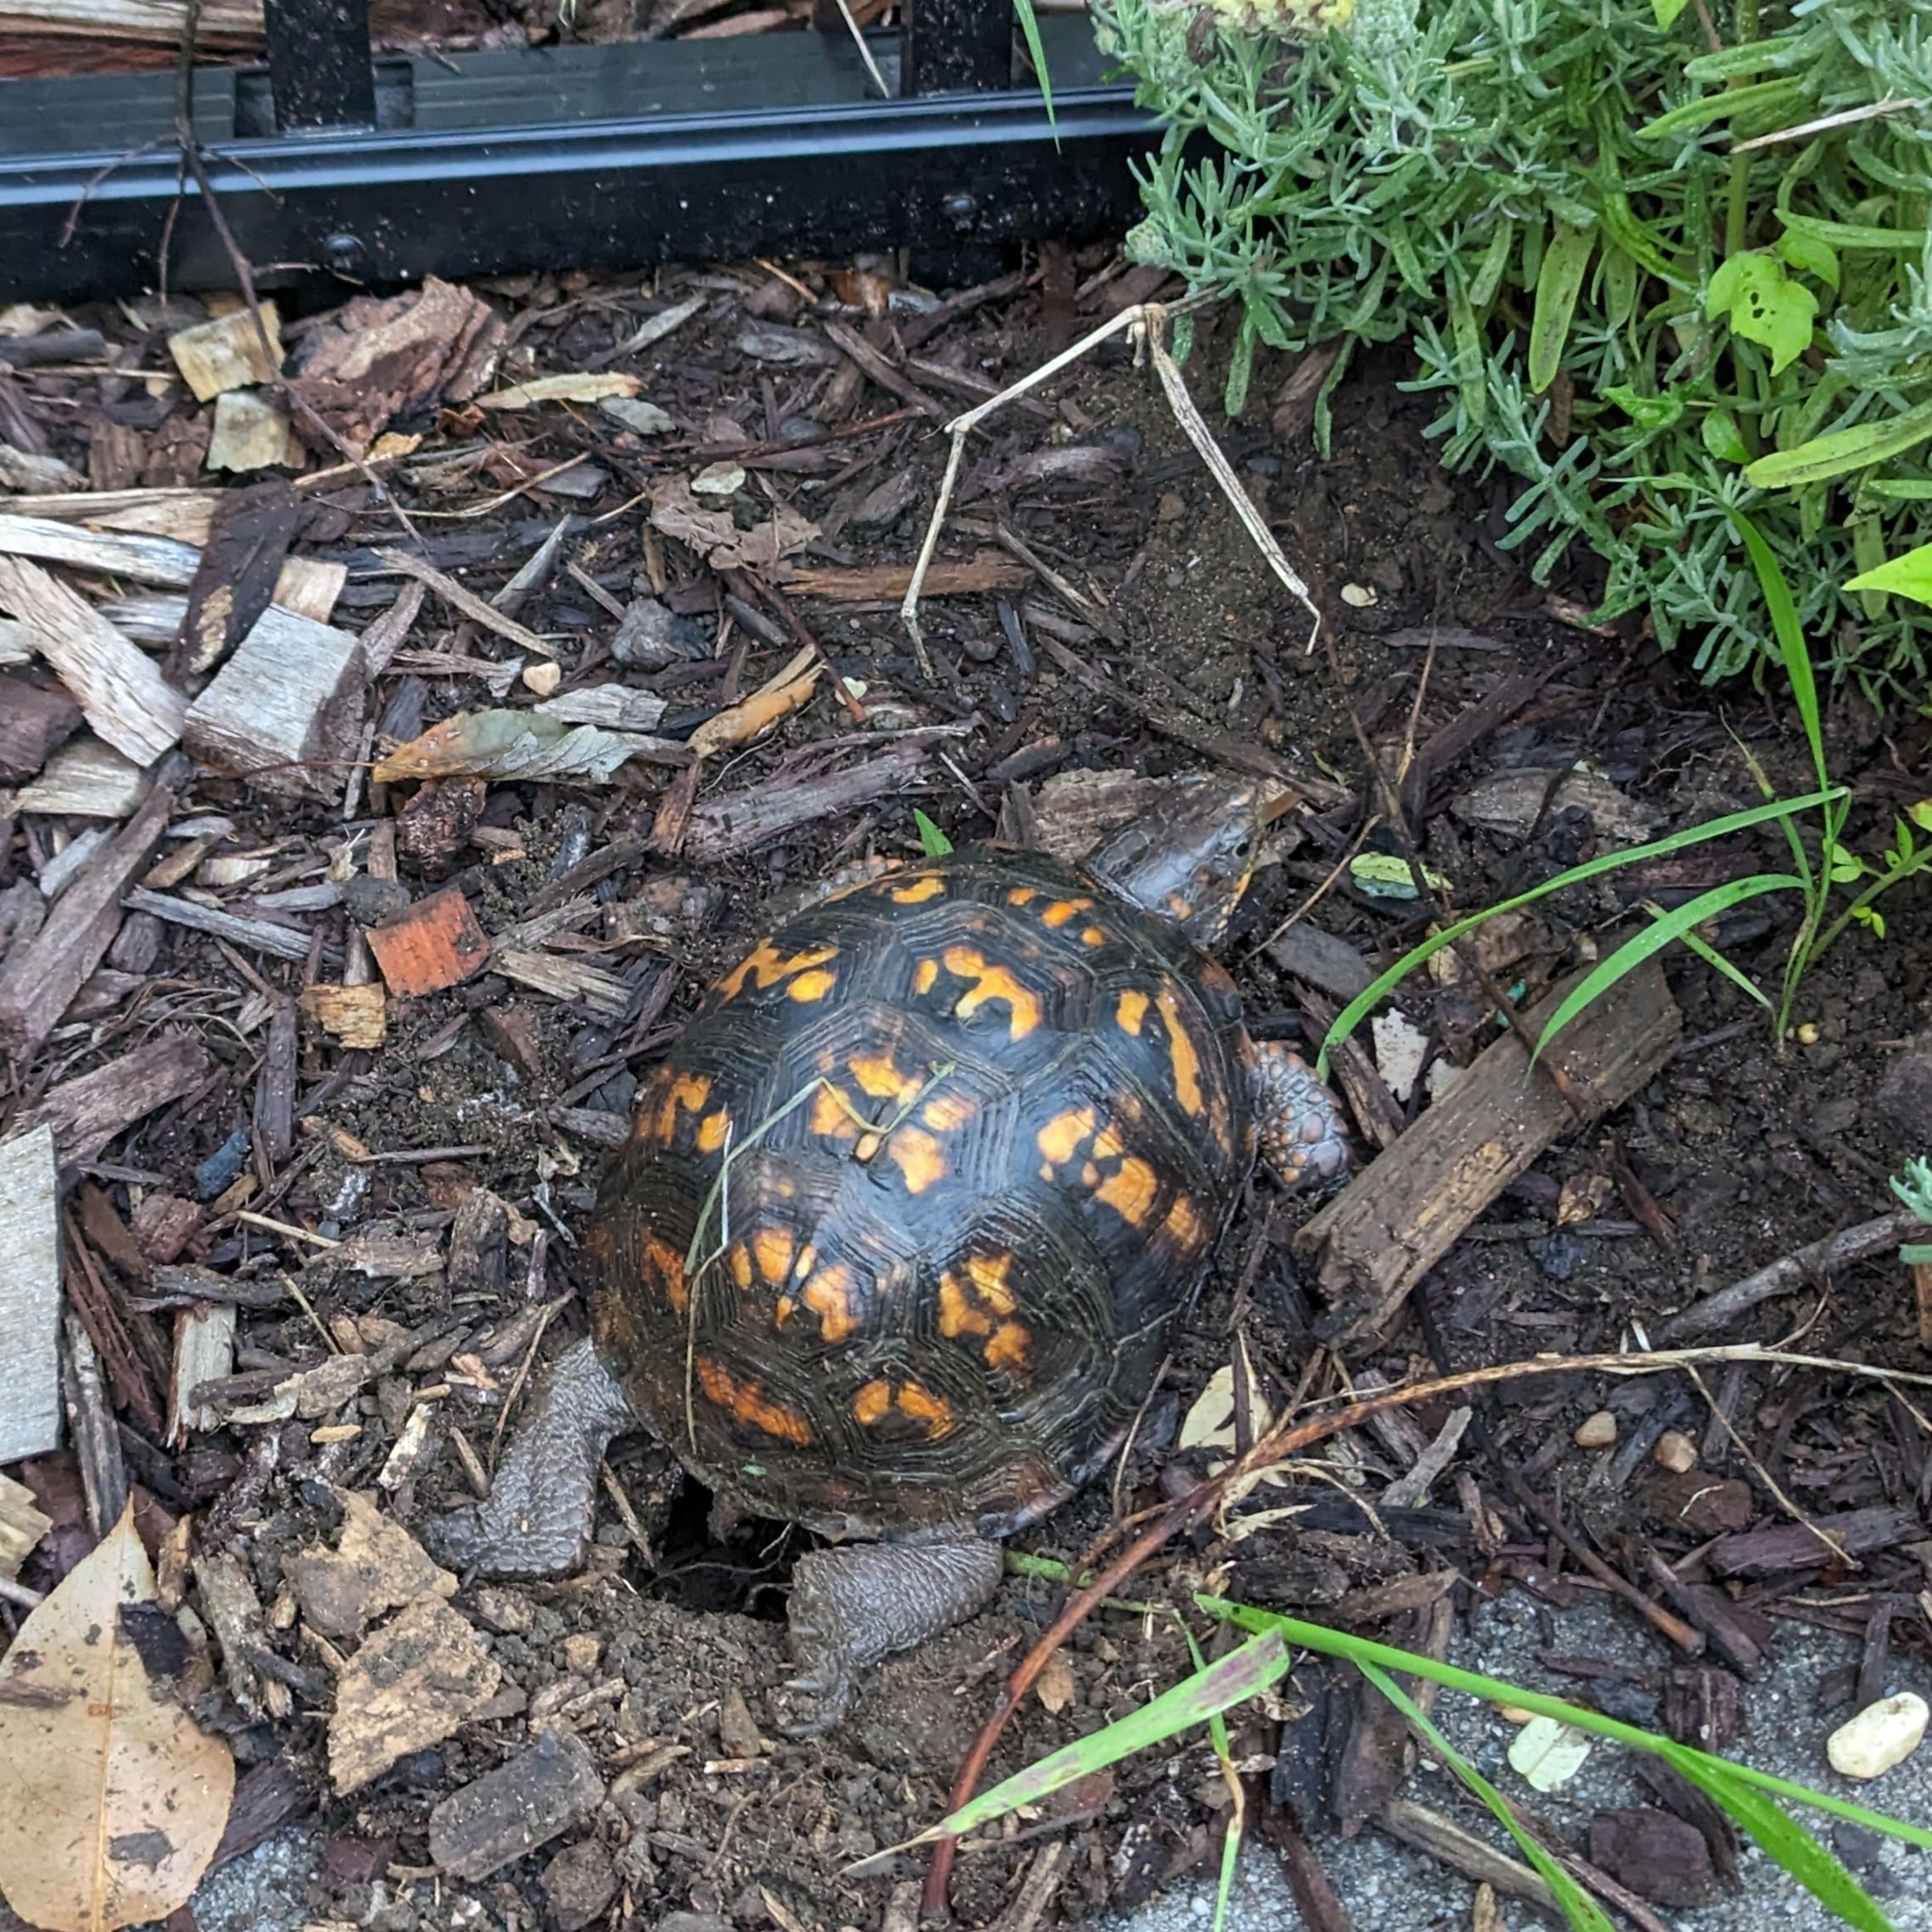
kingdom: Animalia
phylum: Chordata
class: Testudines
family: Emydidae
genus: Terrapene
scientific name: Terrapene carolina
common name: Common box turtle
